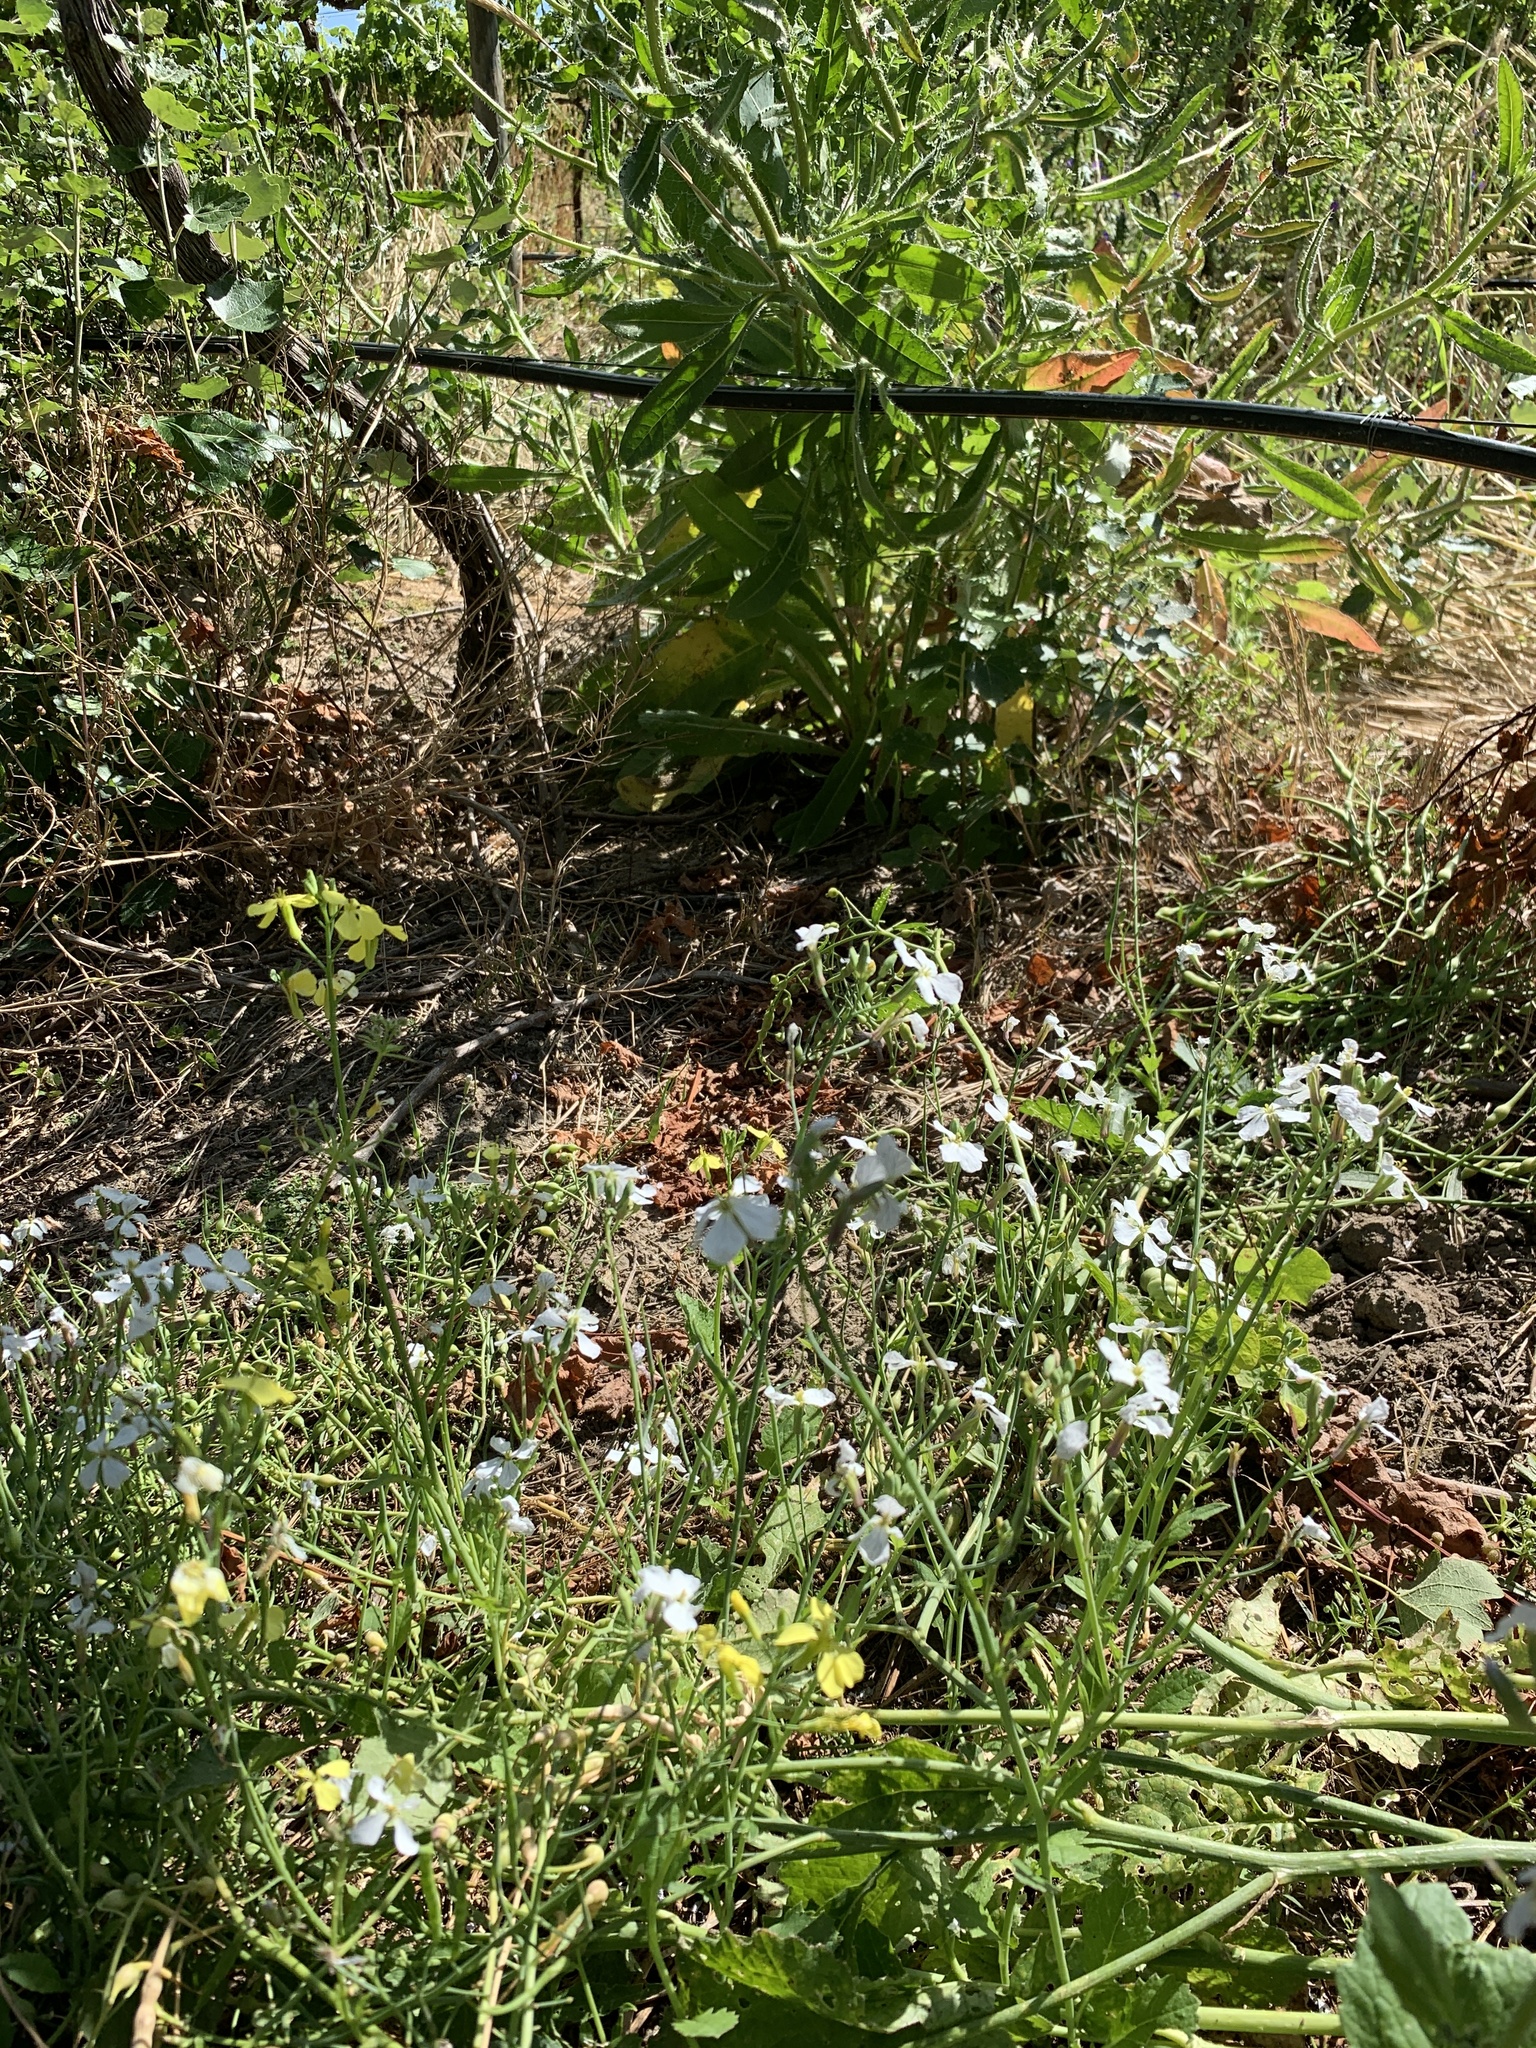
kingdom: Plantae
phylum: Tracheophyta
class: Magnoliopsida
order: Brassicales
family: Brassicaceae
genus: Raphanus
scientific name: Raphanus sativus
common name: Cultivated radish
